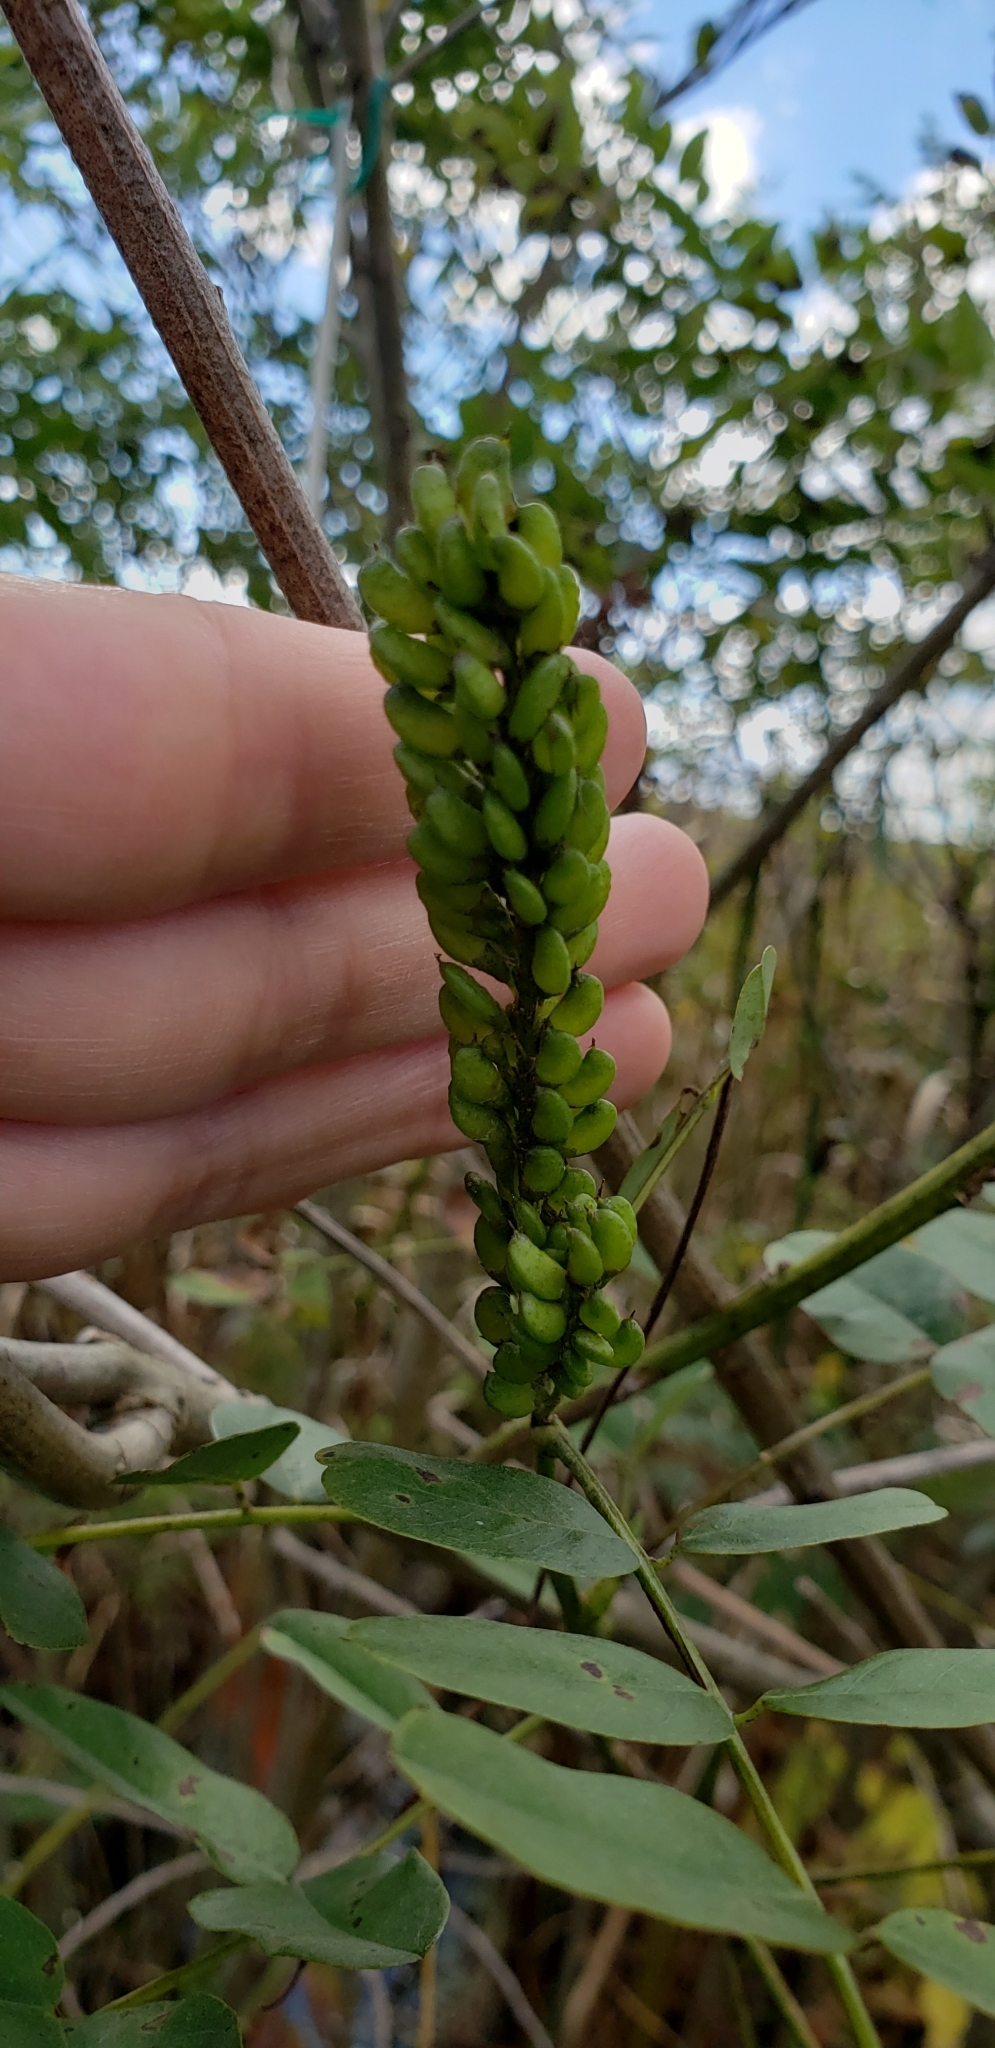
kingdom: Plantae
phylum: Tracheophyta
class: Magnoliopsida
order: Fabales
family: Fabaceae
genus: Amorpha
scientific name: Amorpha fruticosa
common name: False indigo
